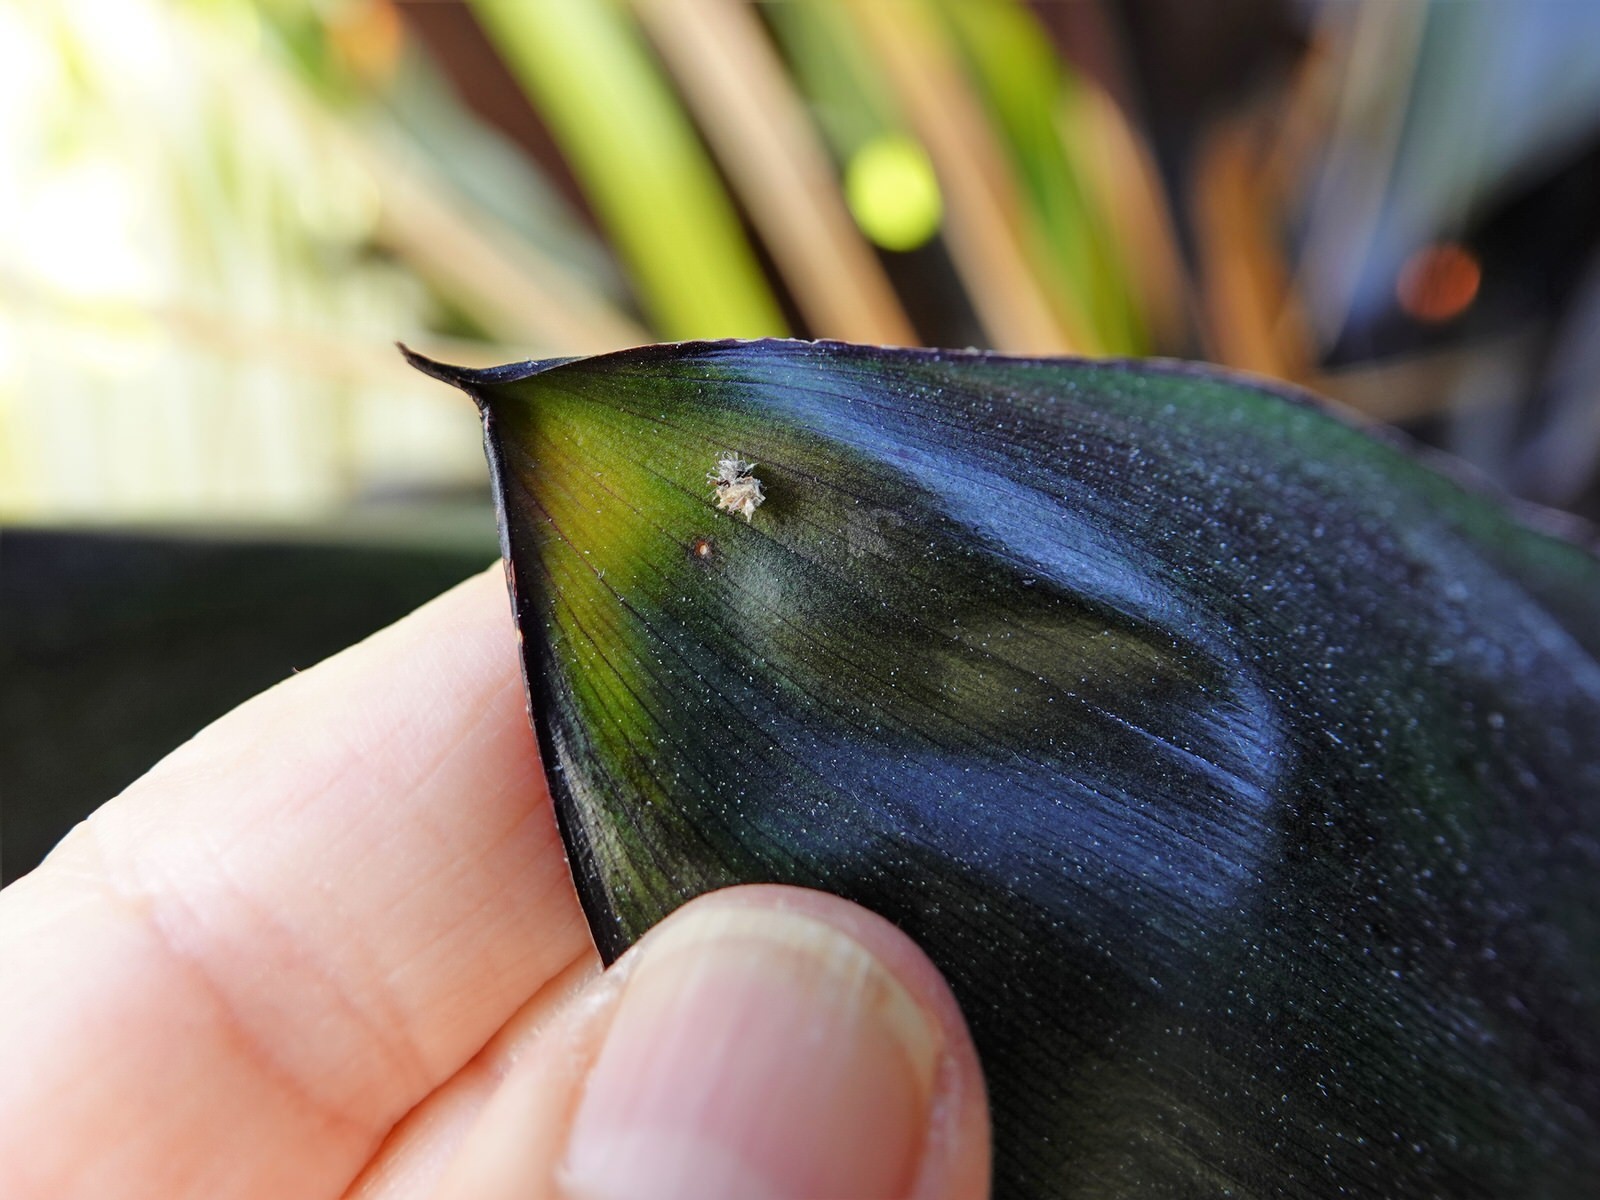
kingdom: Animalia
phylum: Arthropoda
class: Insecta
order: Hemiptera
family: Ricaniidae
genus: Scolypopa
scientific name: Scolypopa australis
